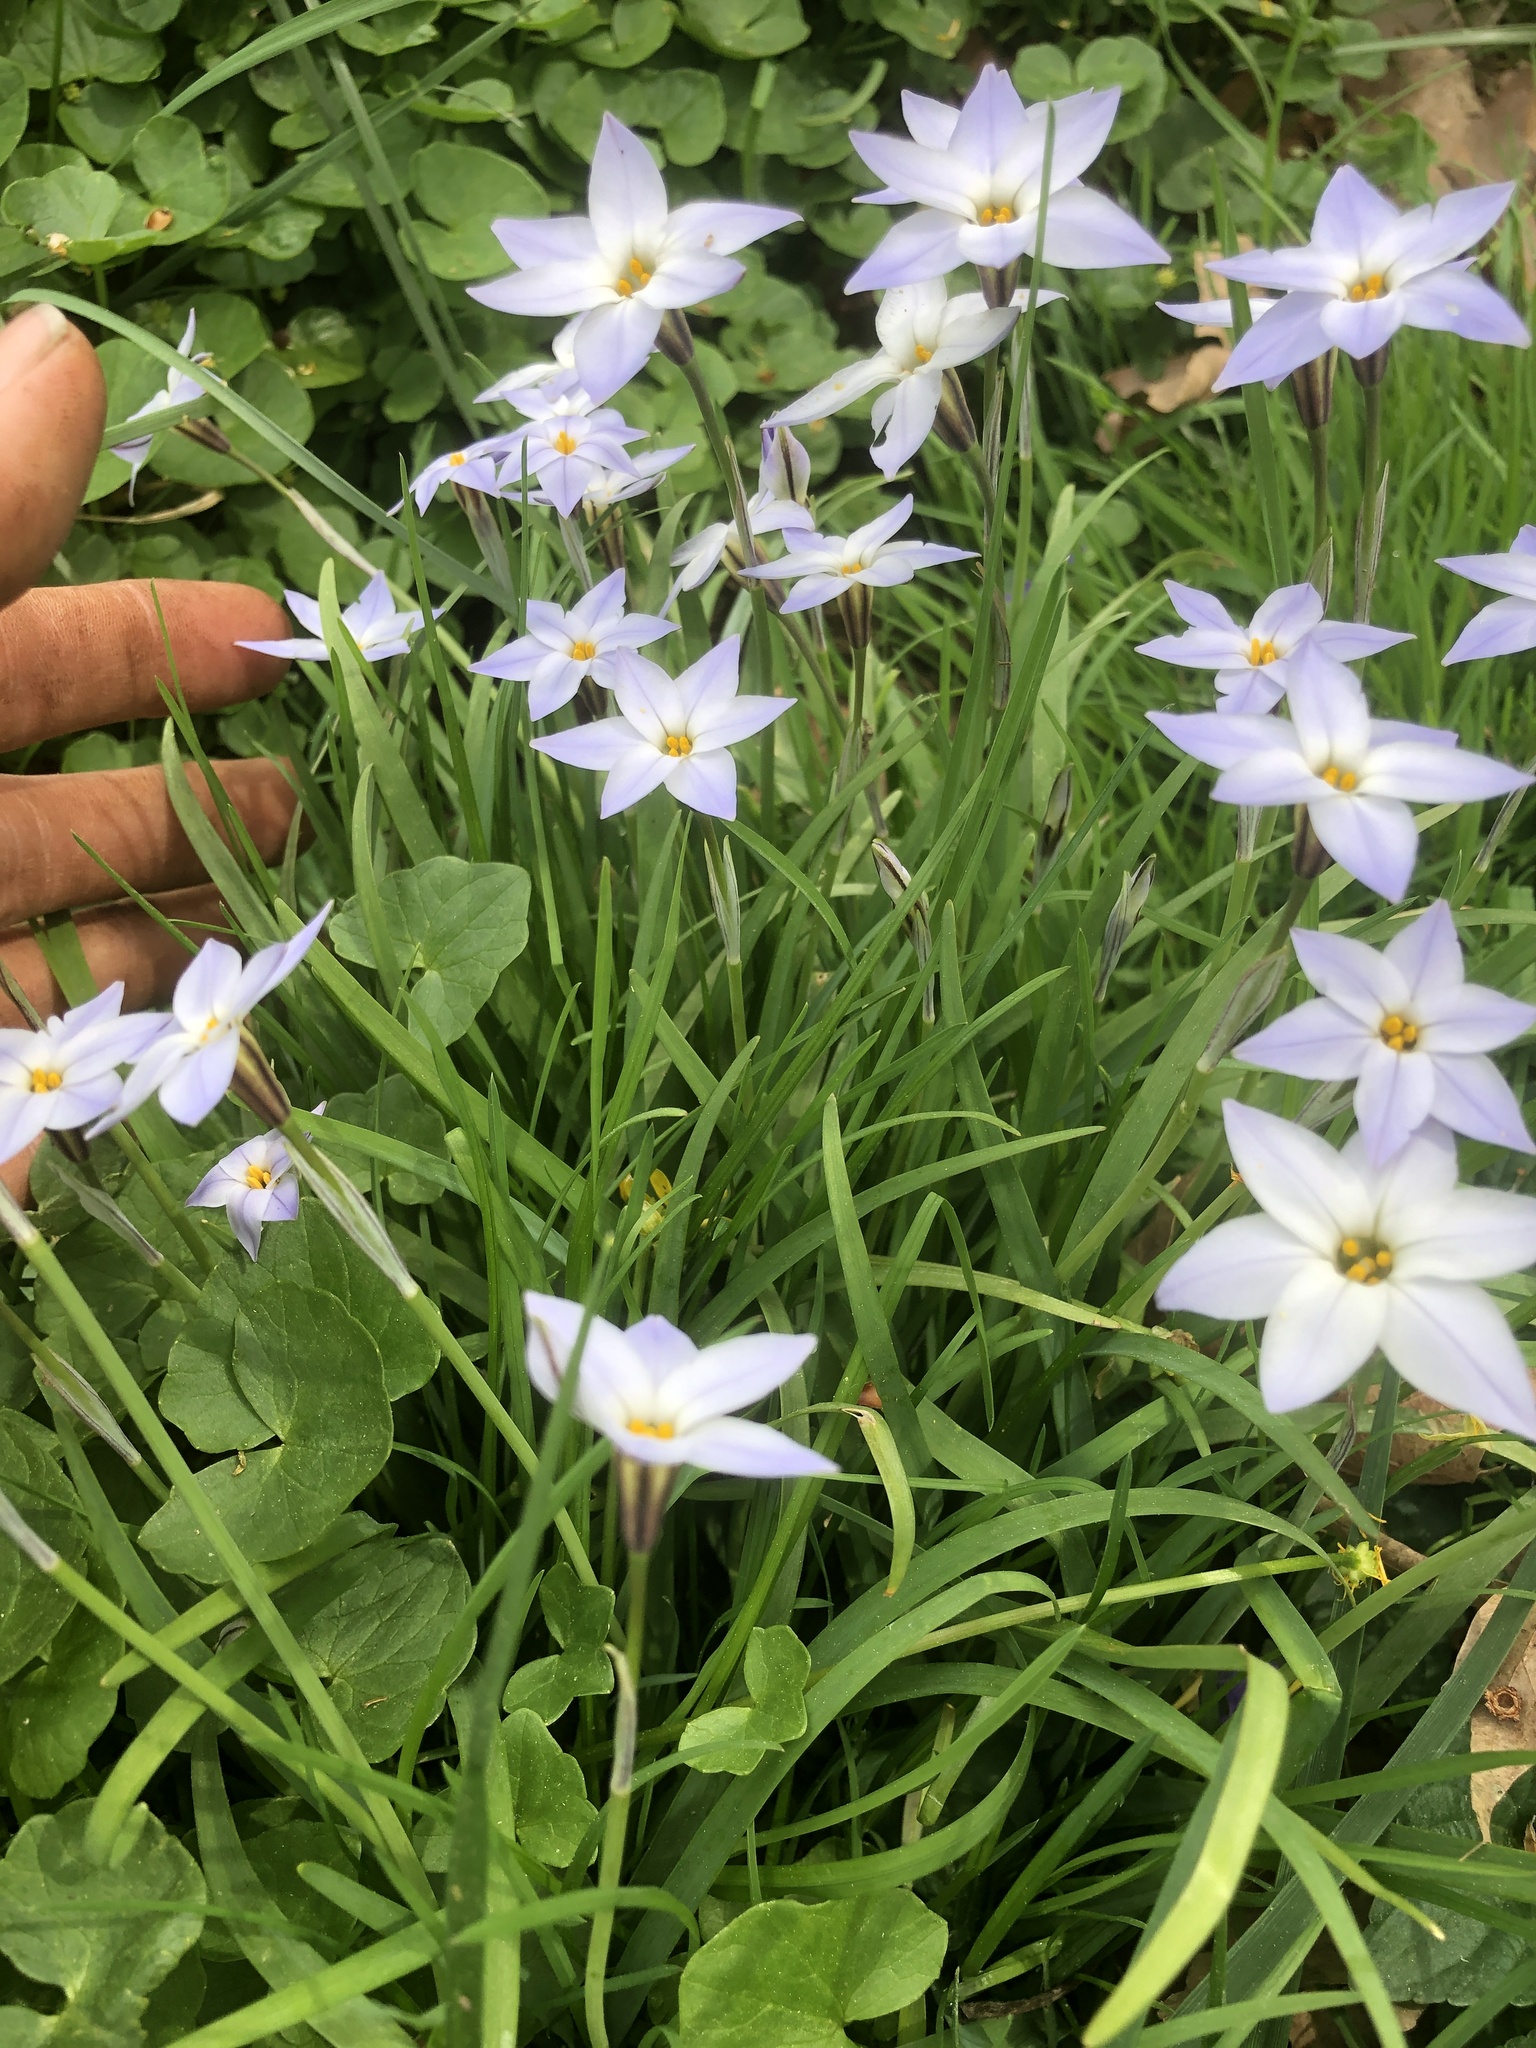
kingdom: Plantae
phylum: Tracheophyta
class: Liliopsida
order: Asparagales
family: Amaryllidaceae
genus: Ipheion
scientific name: Ipheion uniflorum
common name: Spring starflower
